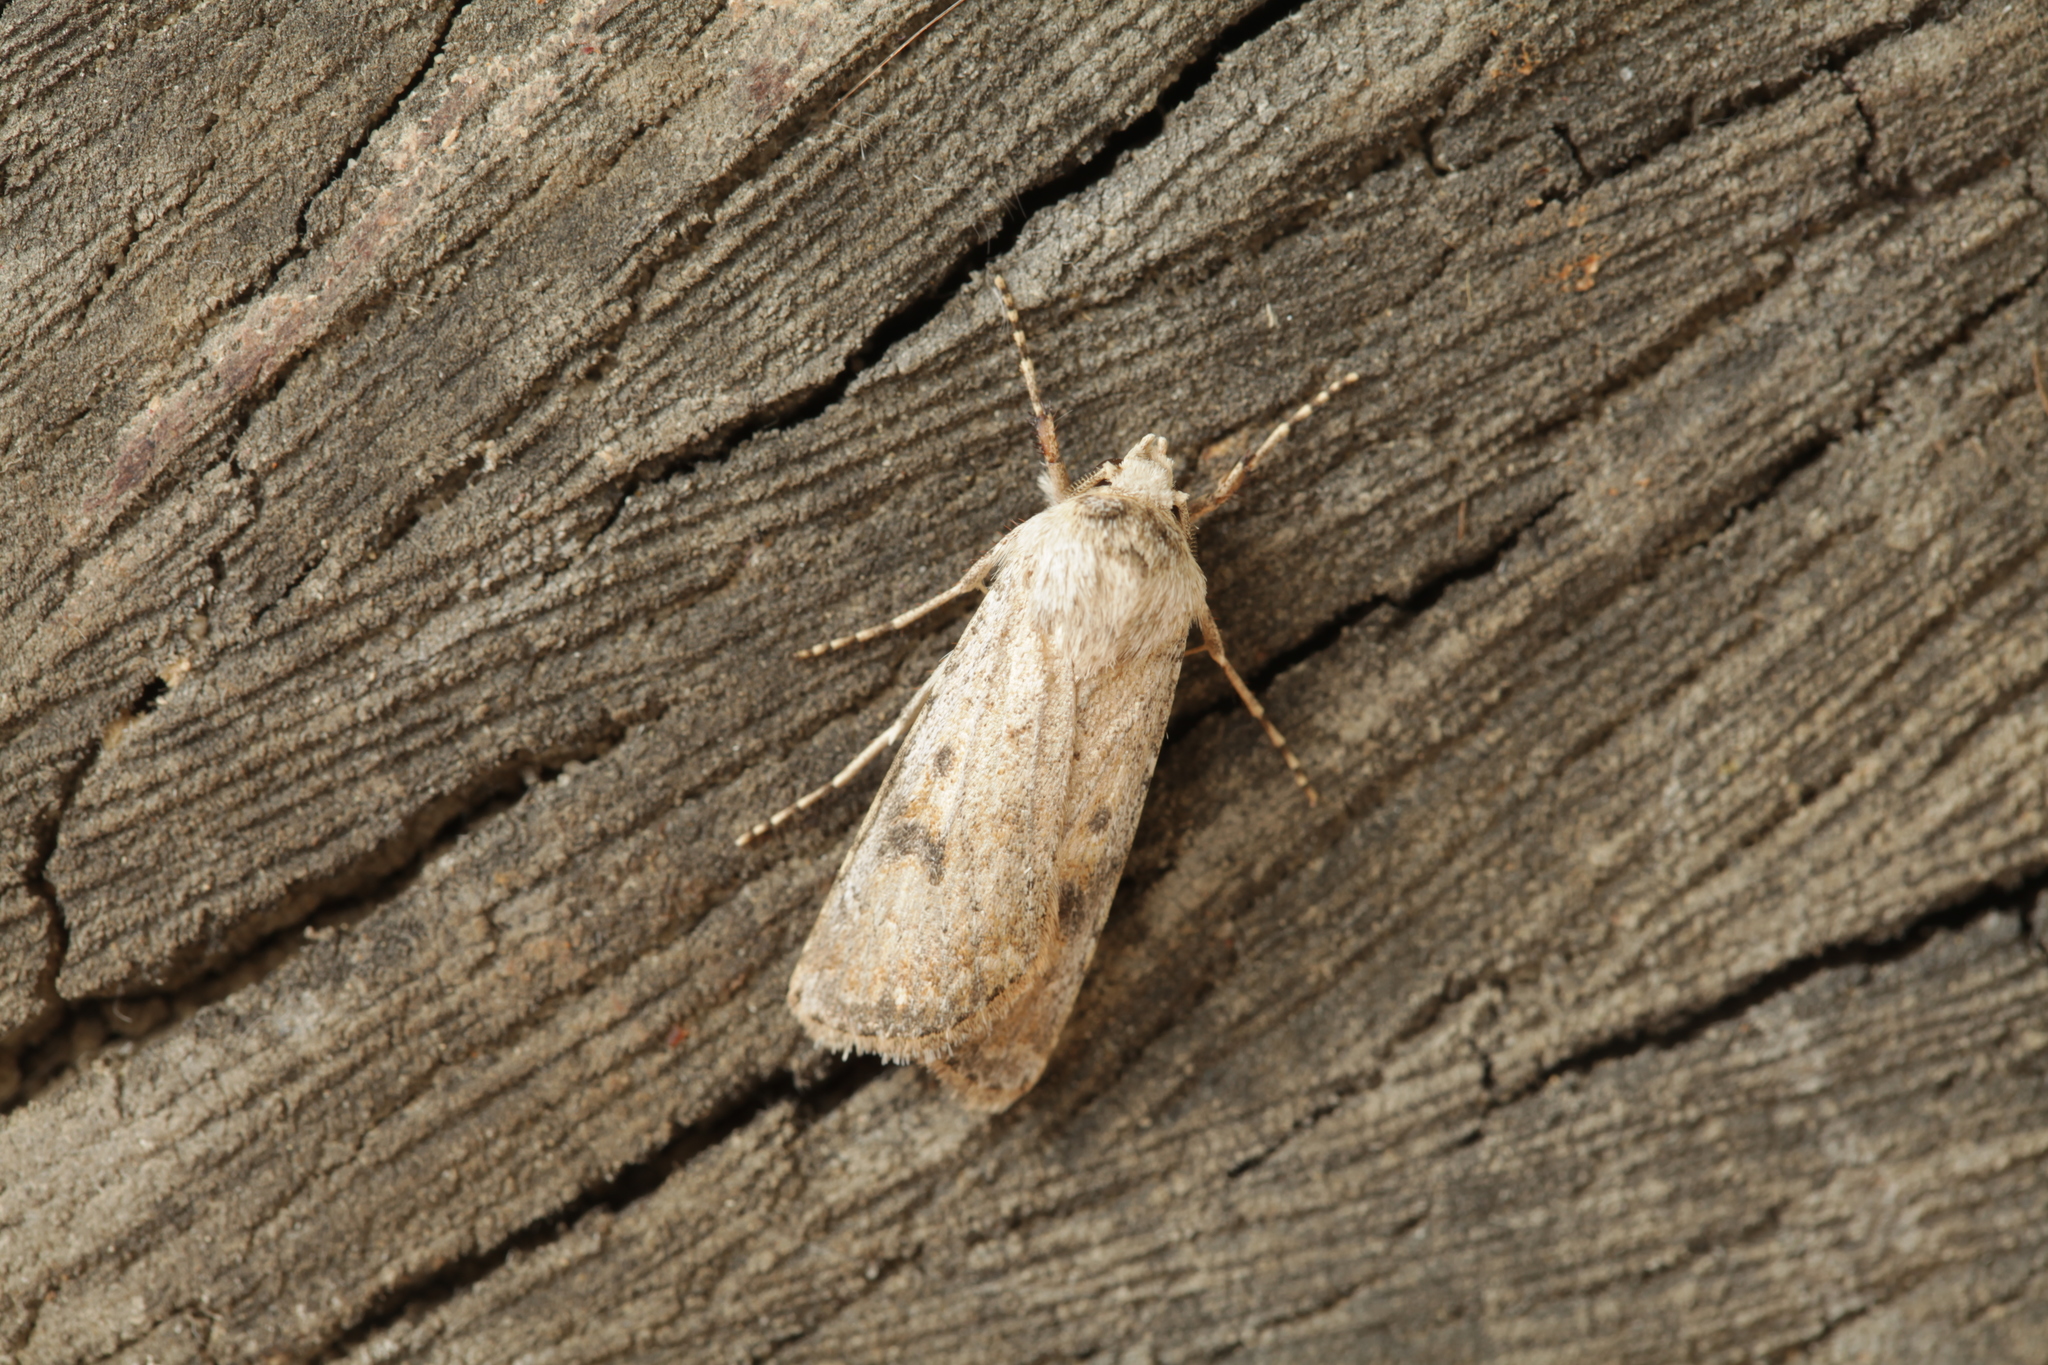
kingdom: Animalia
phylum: Arthropoda
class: Insecta
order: Lepidoptera
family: Noctuidae
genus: Agrotis
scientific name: Agrotis desertorum
